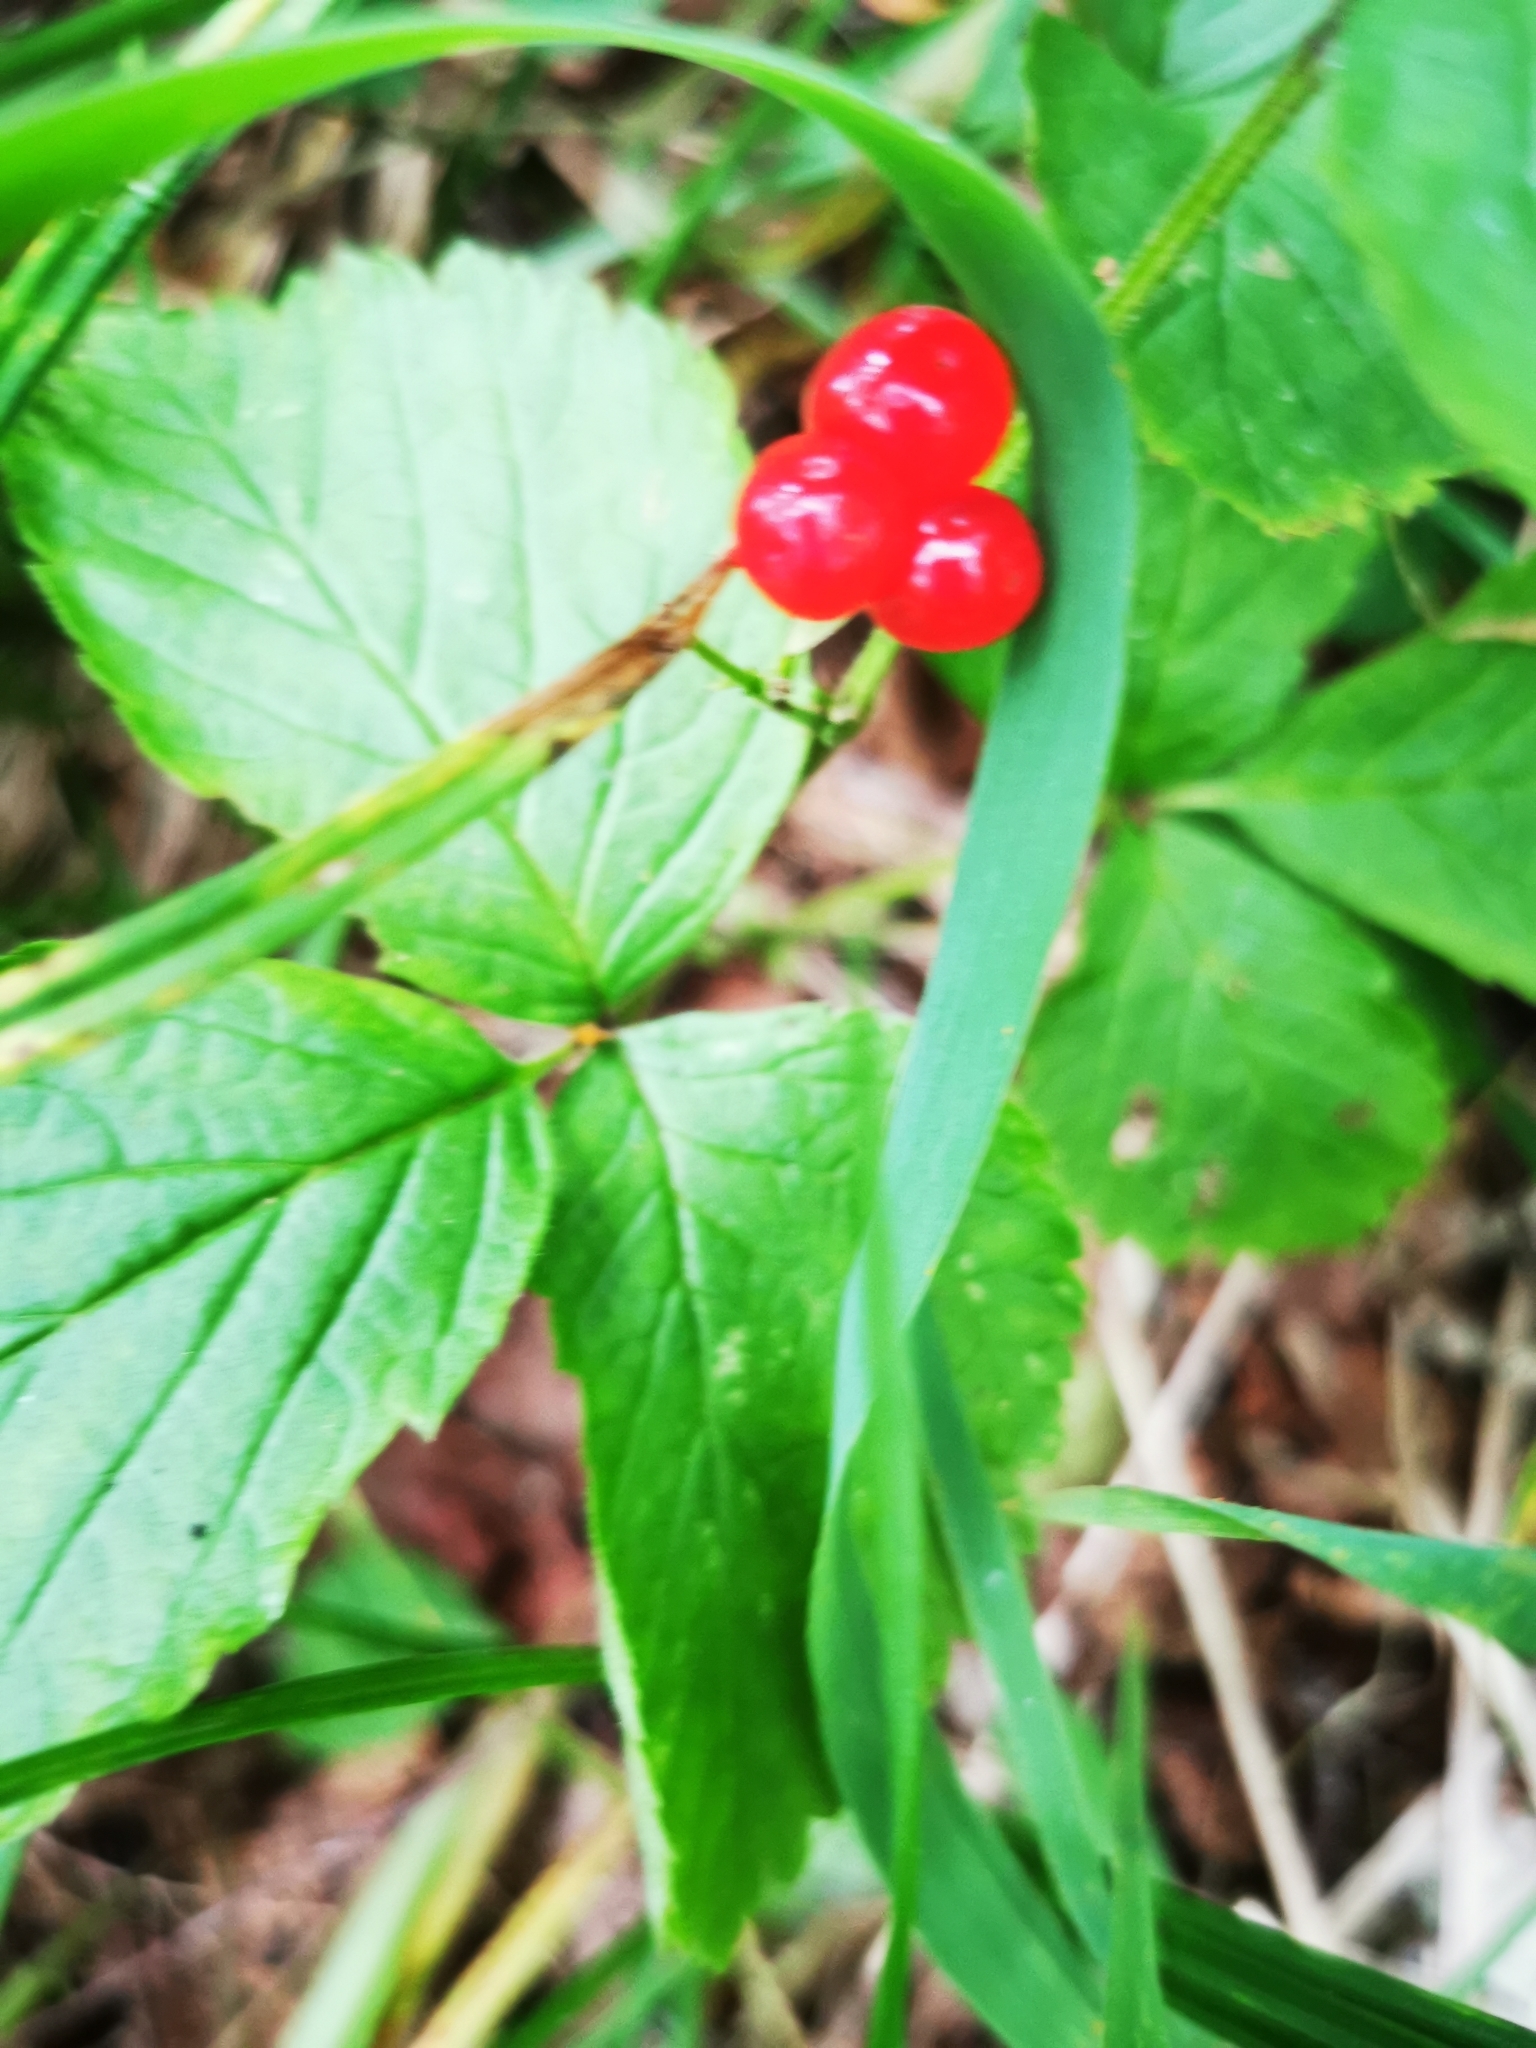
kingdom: Plantae
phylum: Tracheophyta
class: Magnoliopsida
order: Rosales
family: Rosaceae
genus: Rubus
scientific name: Rubus saxatilis
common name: Stone bramble
